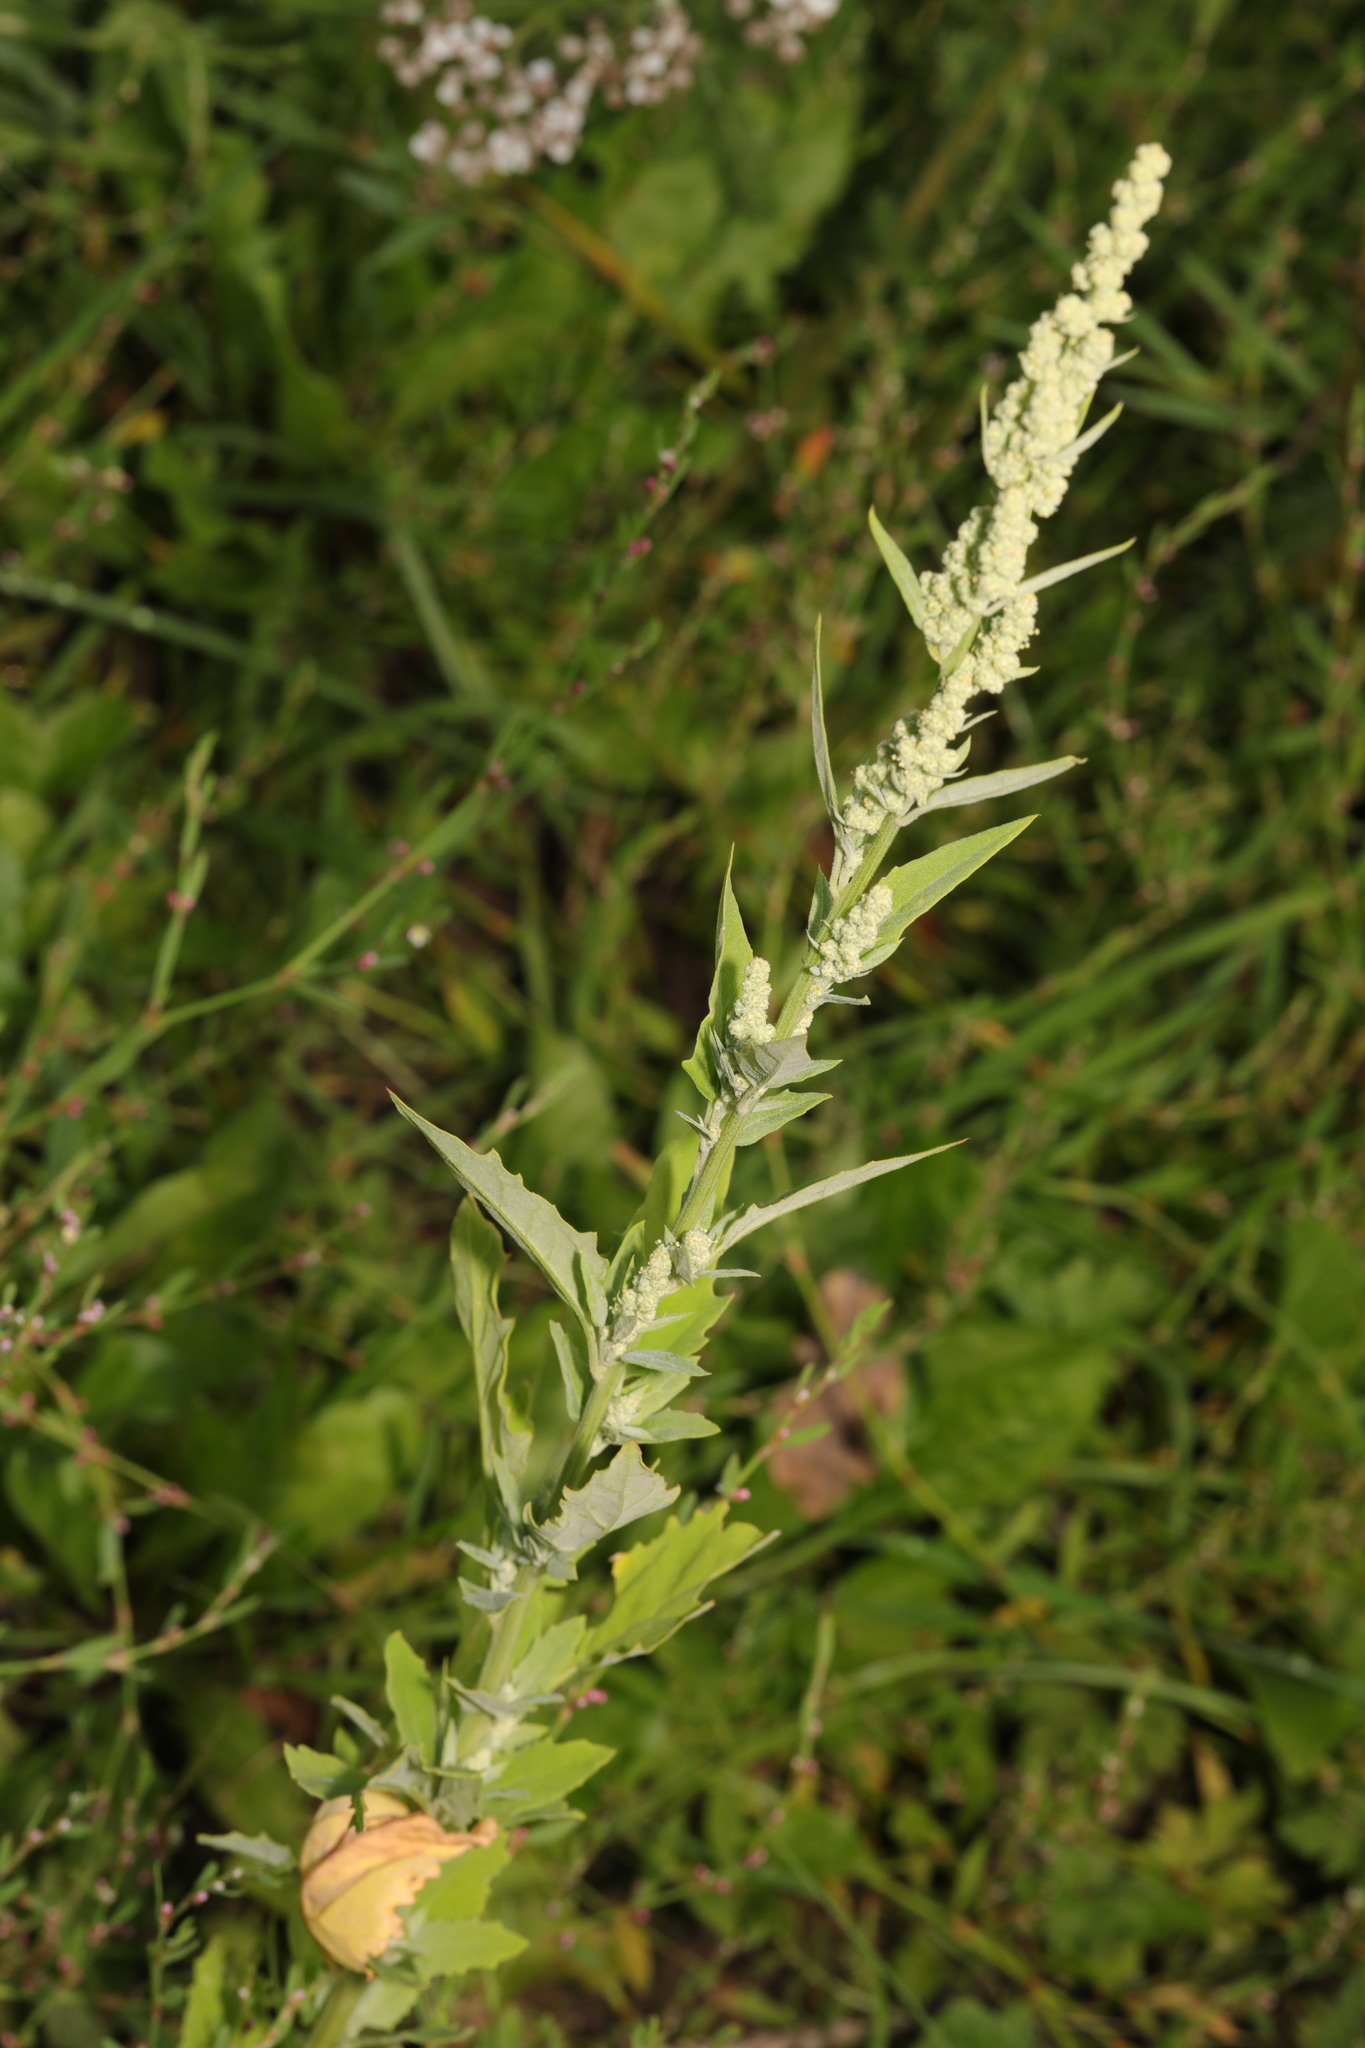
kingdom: Plantae
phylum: Tracheophyta
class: Magnoliopsida
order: Caryophyllales
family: Amaranthaceae
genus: Chenopodium
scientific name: Chenopodium album
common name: Fat-hen
